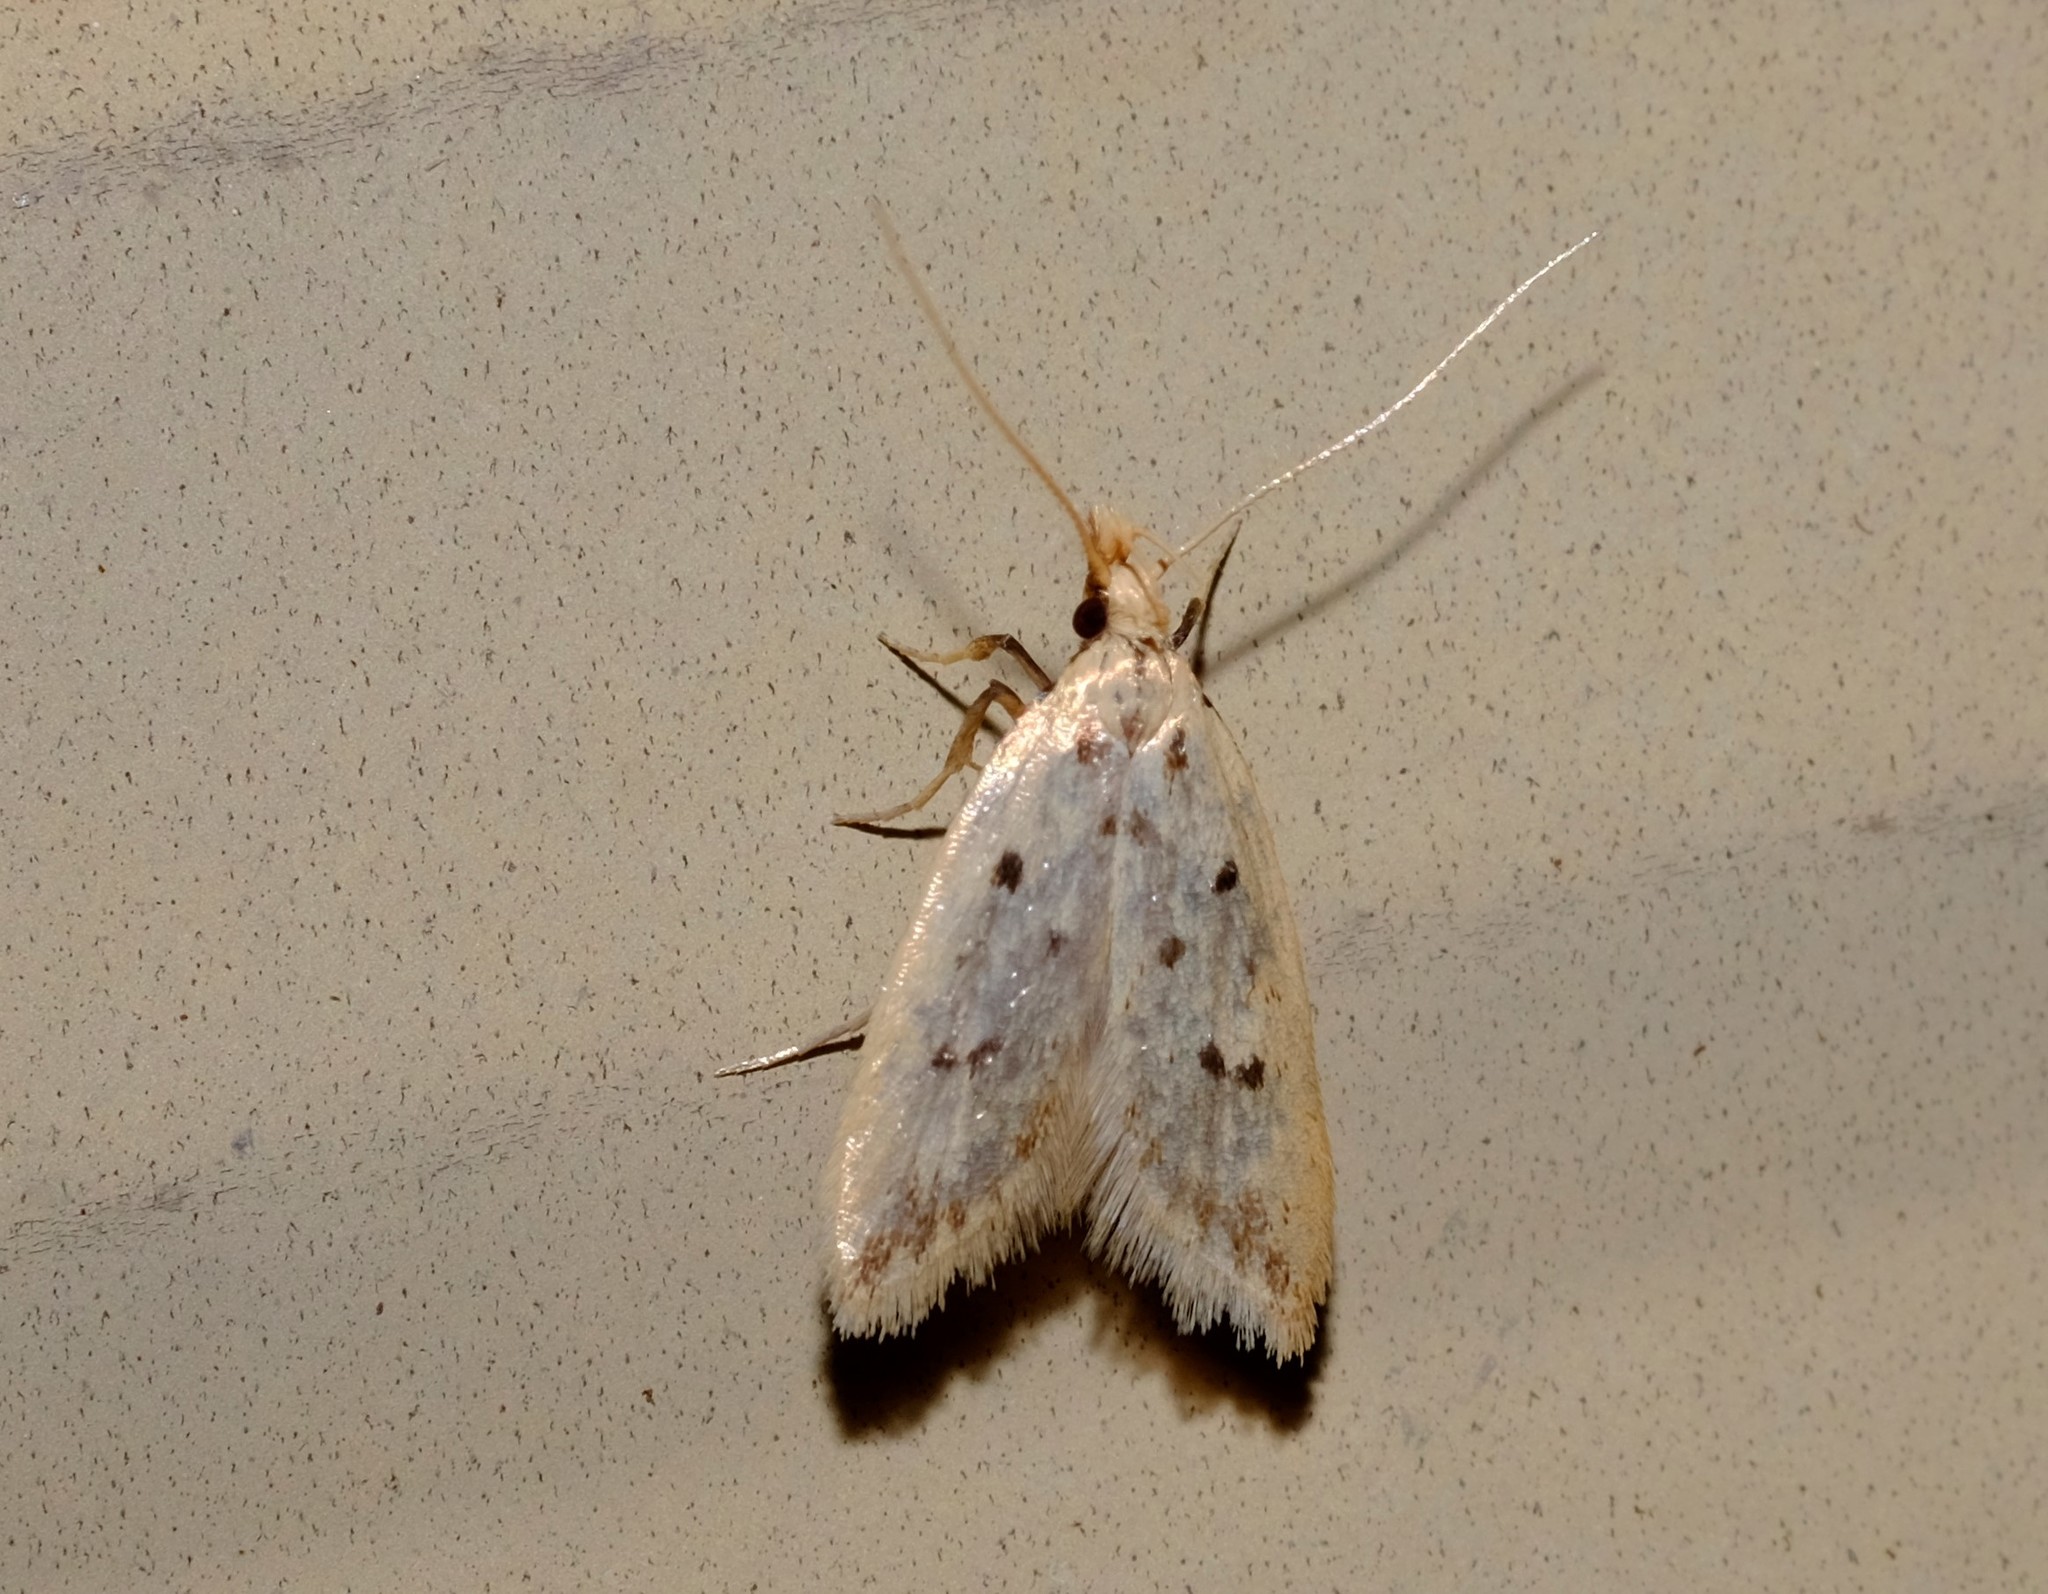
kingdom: Animalia
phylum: Arthropoda
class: Insecta
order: Lepidoptera
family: Oecophoridae
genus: Atheropla
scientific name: Atheropla psammodes
